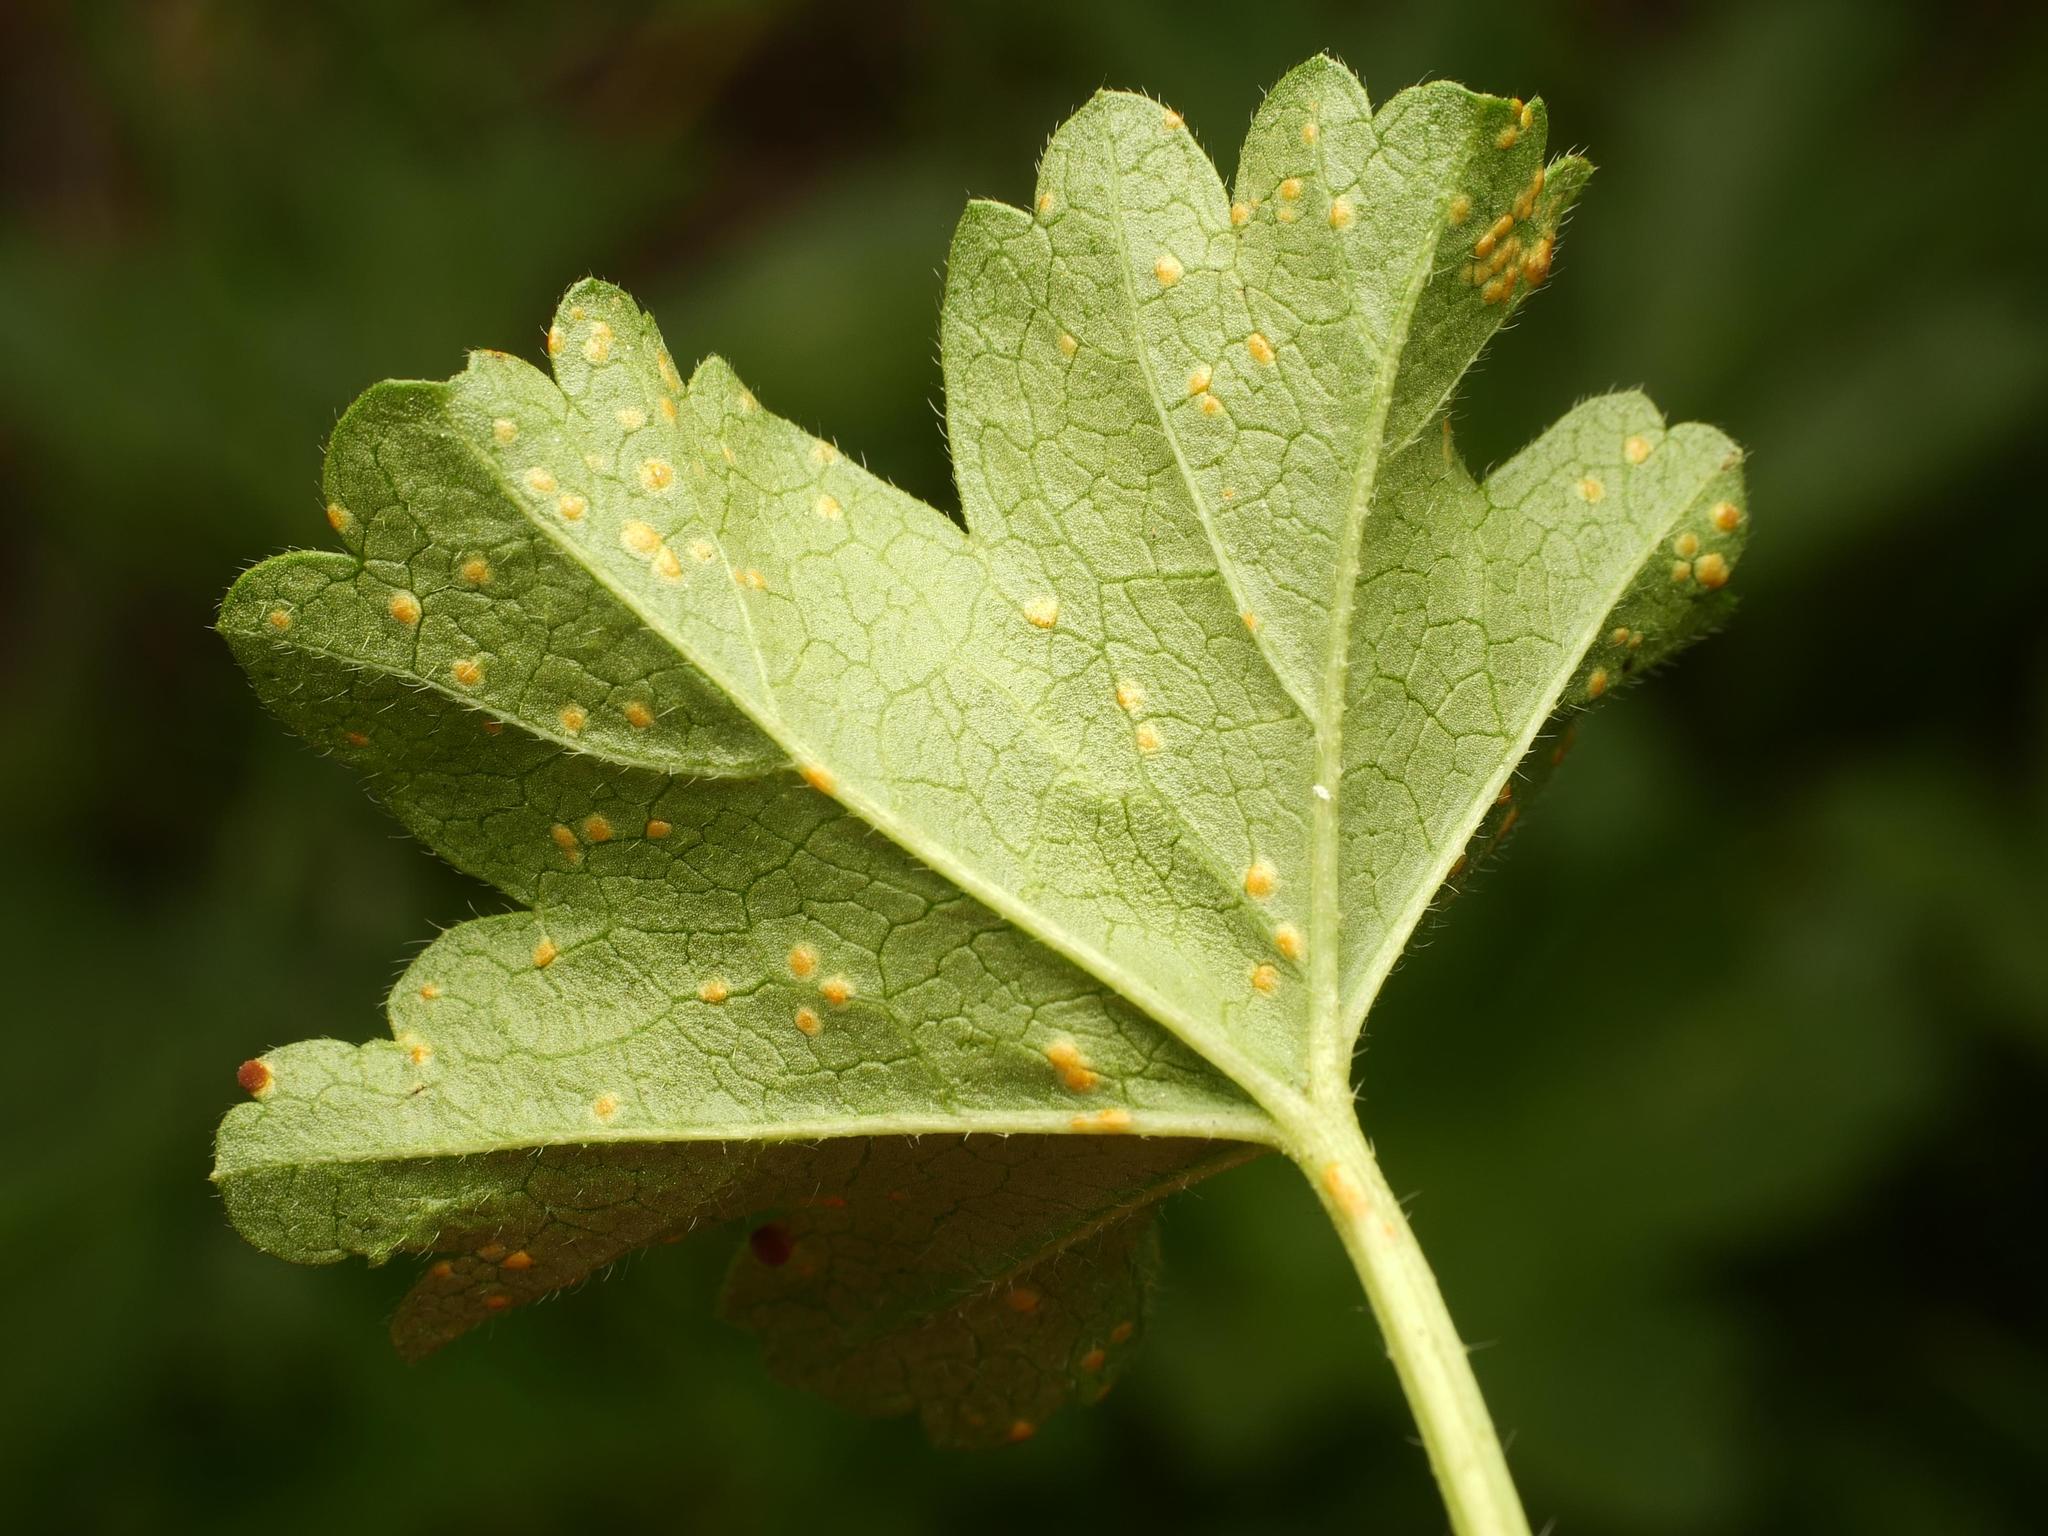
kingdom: Fungi
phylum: Basidiomycota
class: Pucciniomycetes
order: Pucciniales
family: Pucciniaceae
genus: Puccinia
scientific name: Puccinia malvacearum
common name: Hollyhock rust
